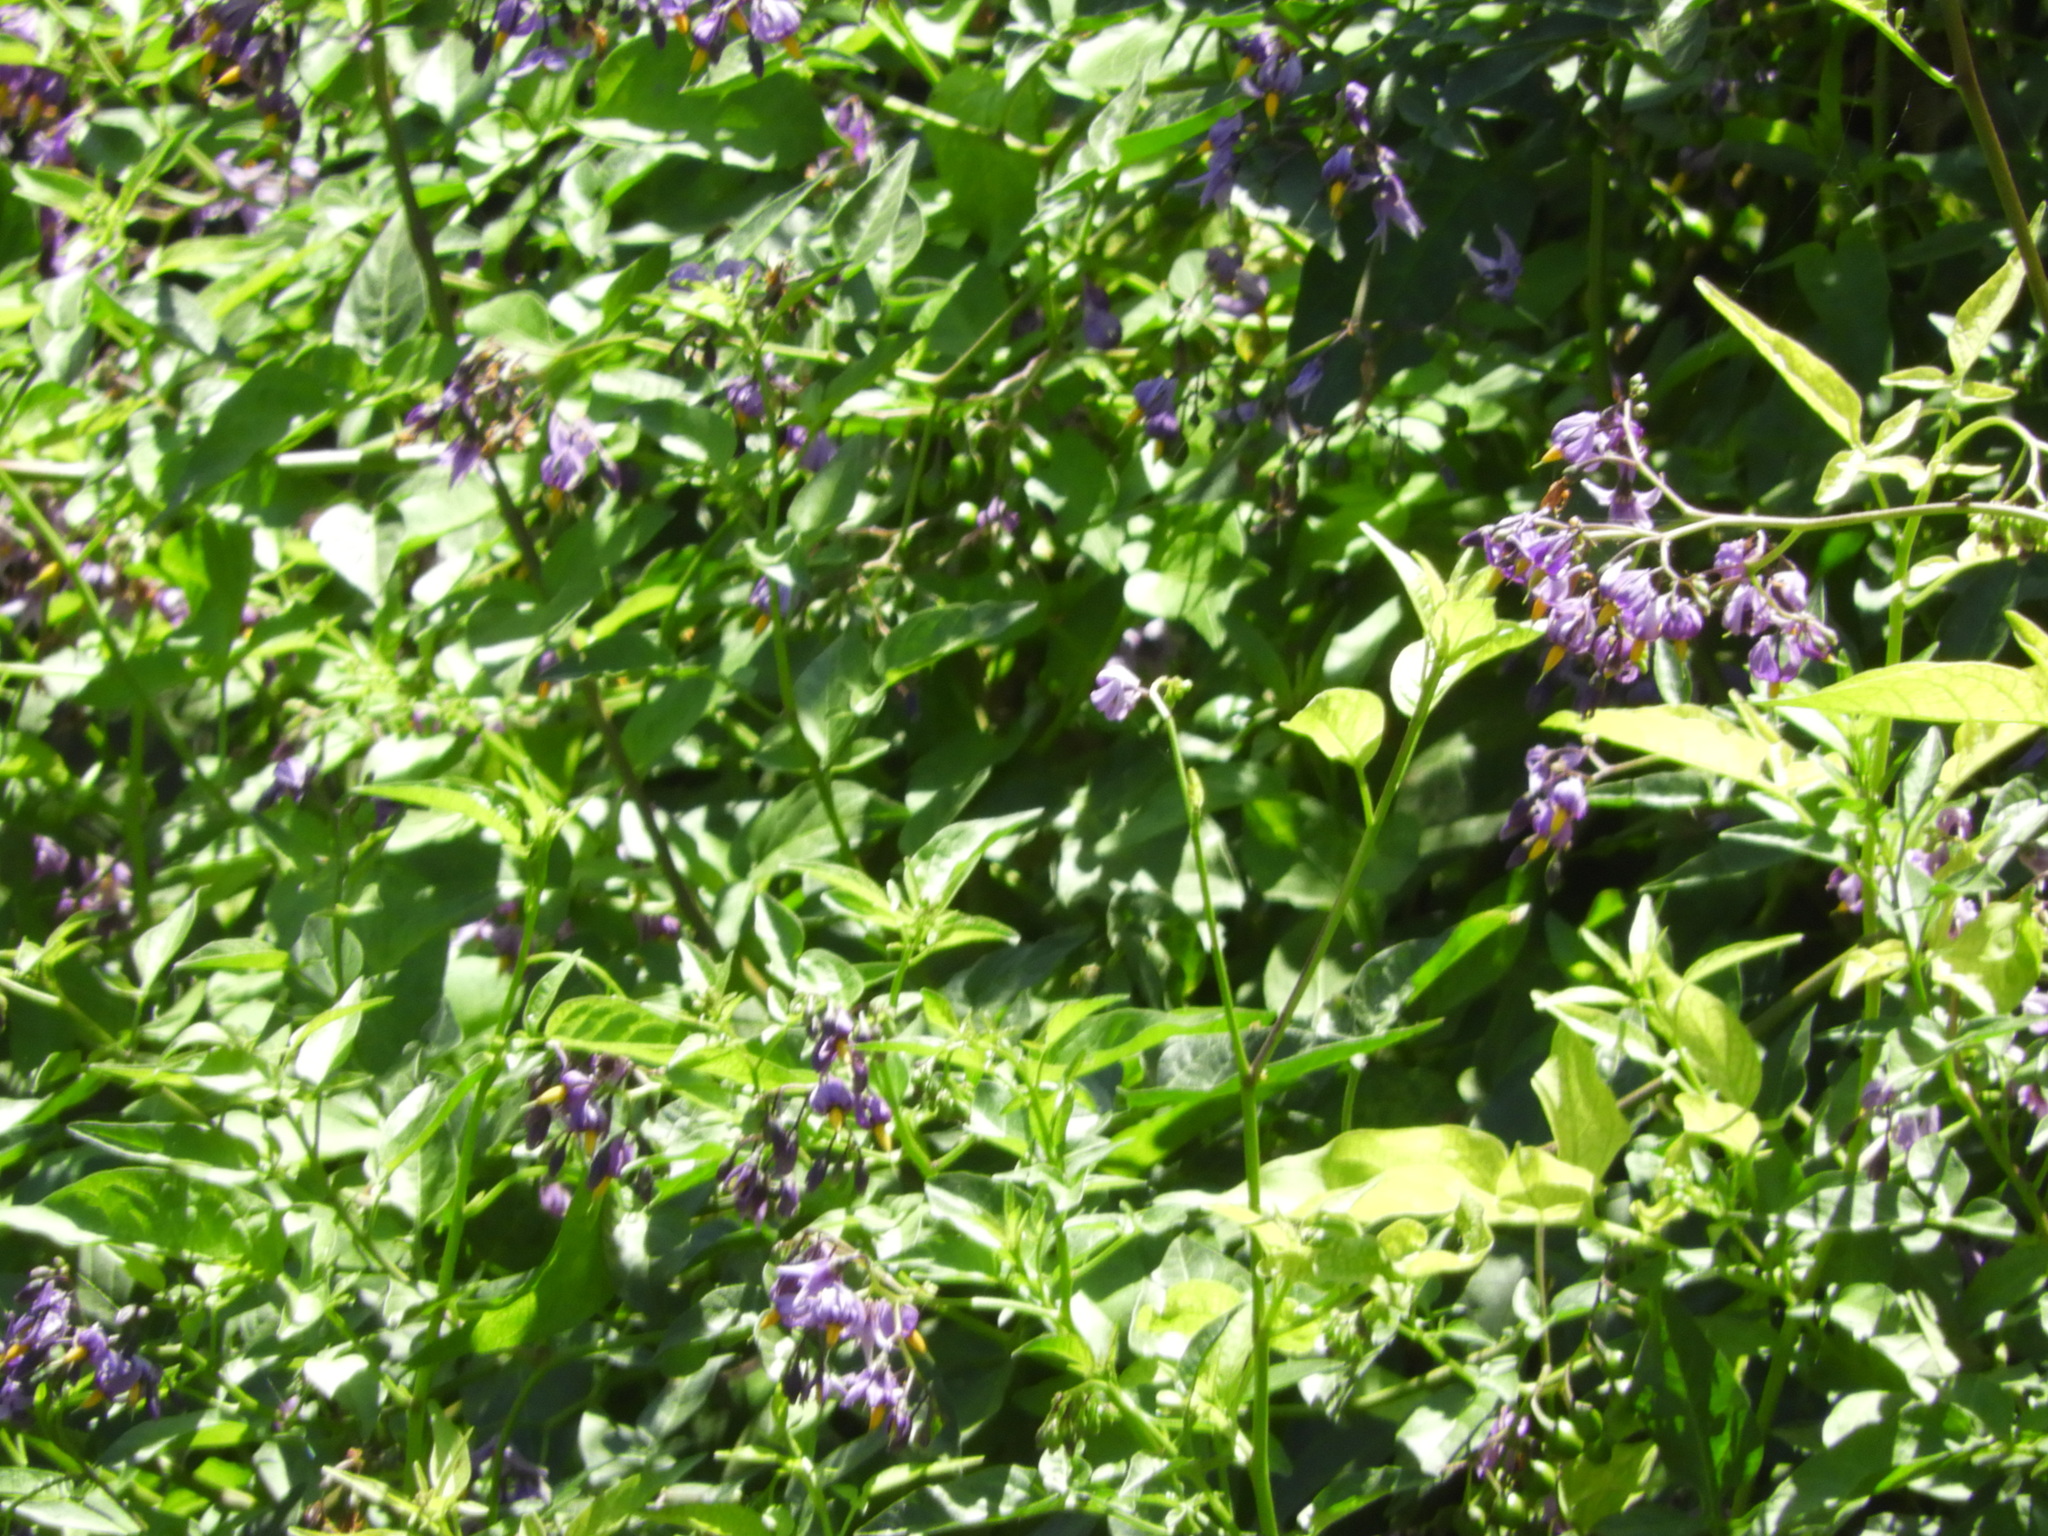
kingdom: Plantae
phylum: Tracheophyta
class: Magnoliopsida
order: Solanales
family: Solanaceae
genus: Solanum
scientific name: Solanum dulcamara
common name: Climbing nightshade
